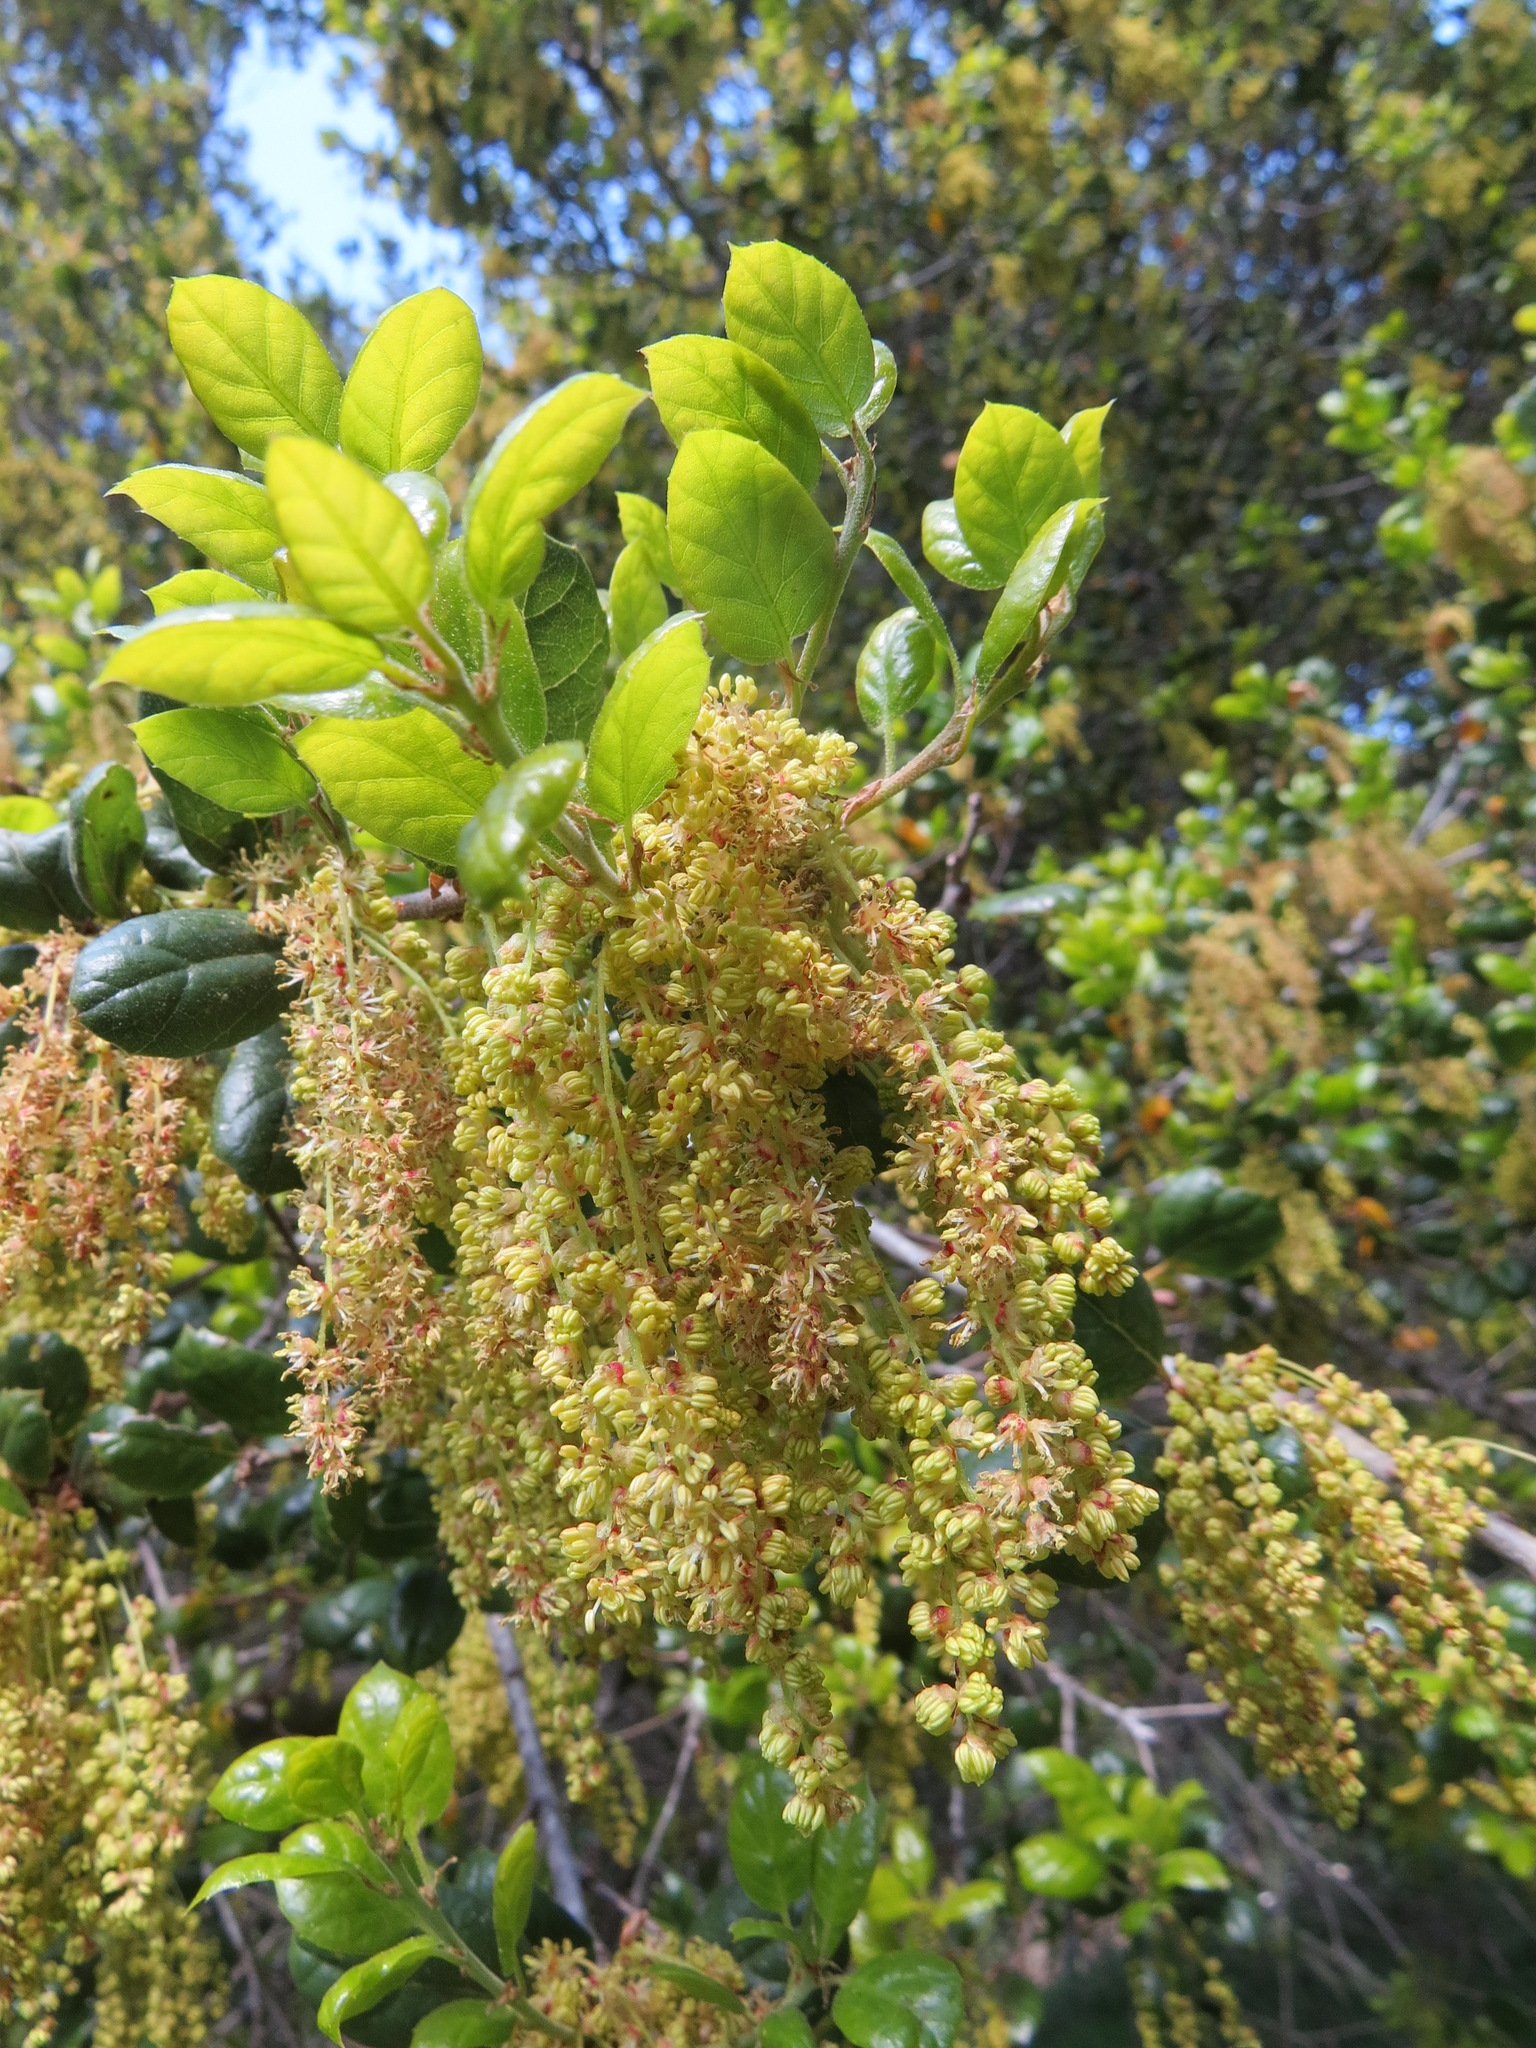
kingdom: Plantae
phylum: Tracheophyta
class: Magnoliopsida
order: Fagales
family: Fagaceae
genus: Quercus
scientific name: Quercus agrifolia
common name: California live oak
